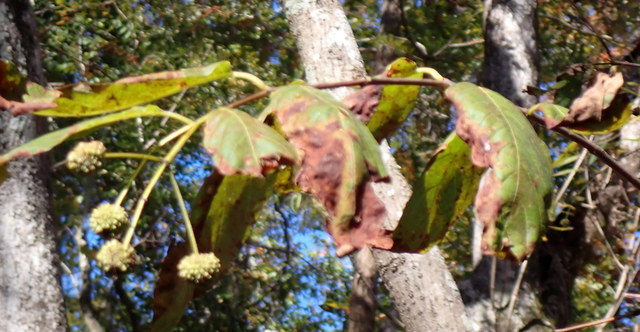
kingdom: Plantae
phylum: Tracheophyta
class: Magnoliopsida
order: Gentianales
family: Rubiaceae
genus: Cephalanthus
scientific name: Cephalanthus occidentalis
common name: Button-willow
